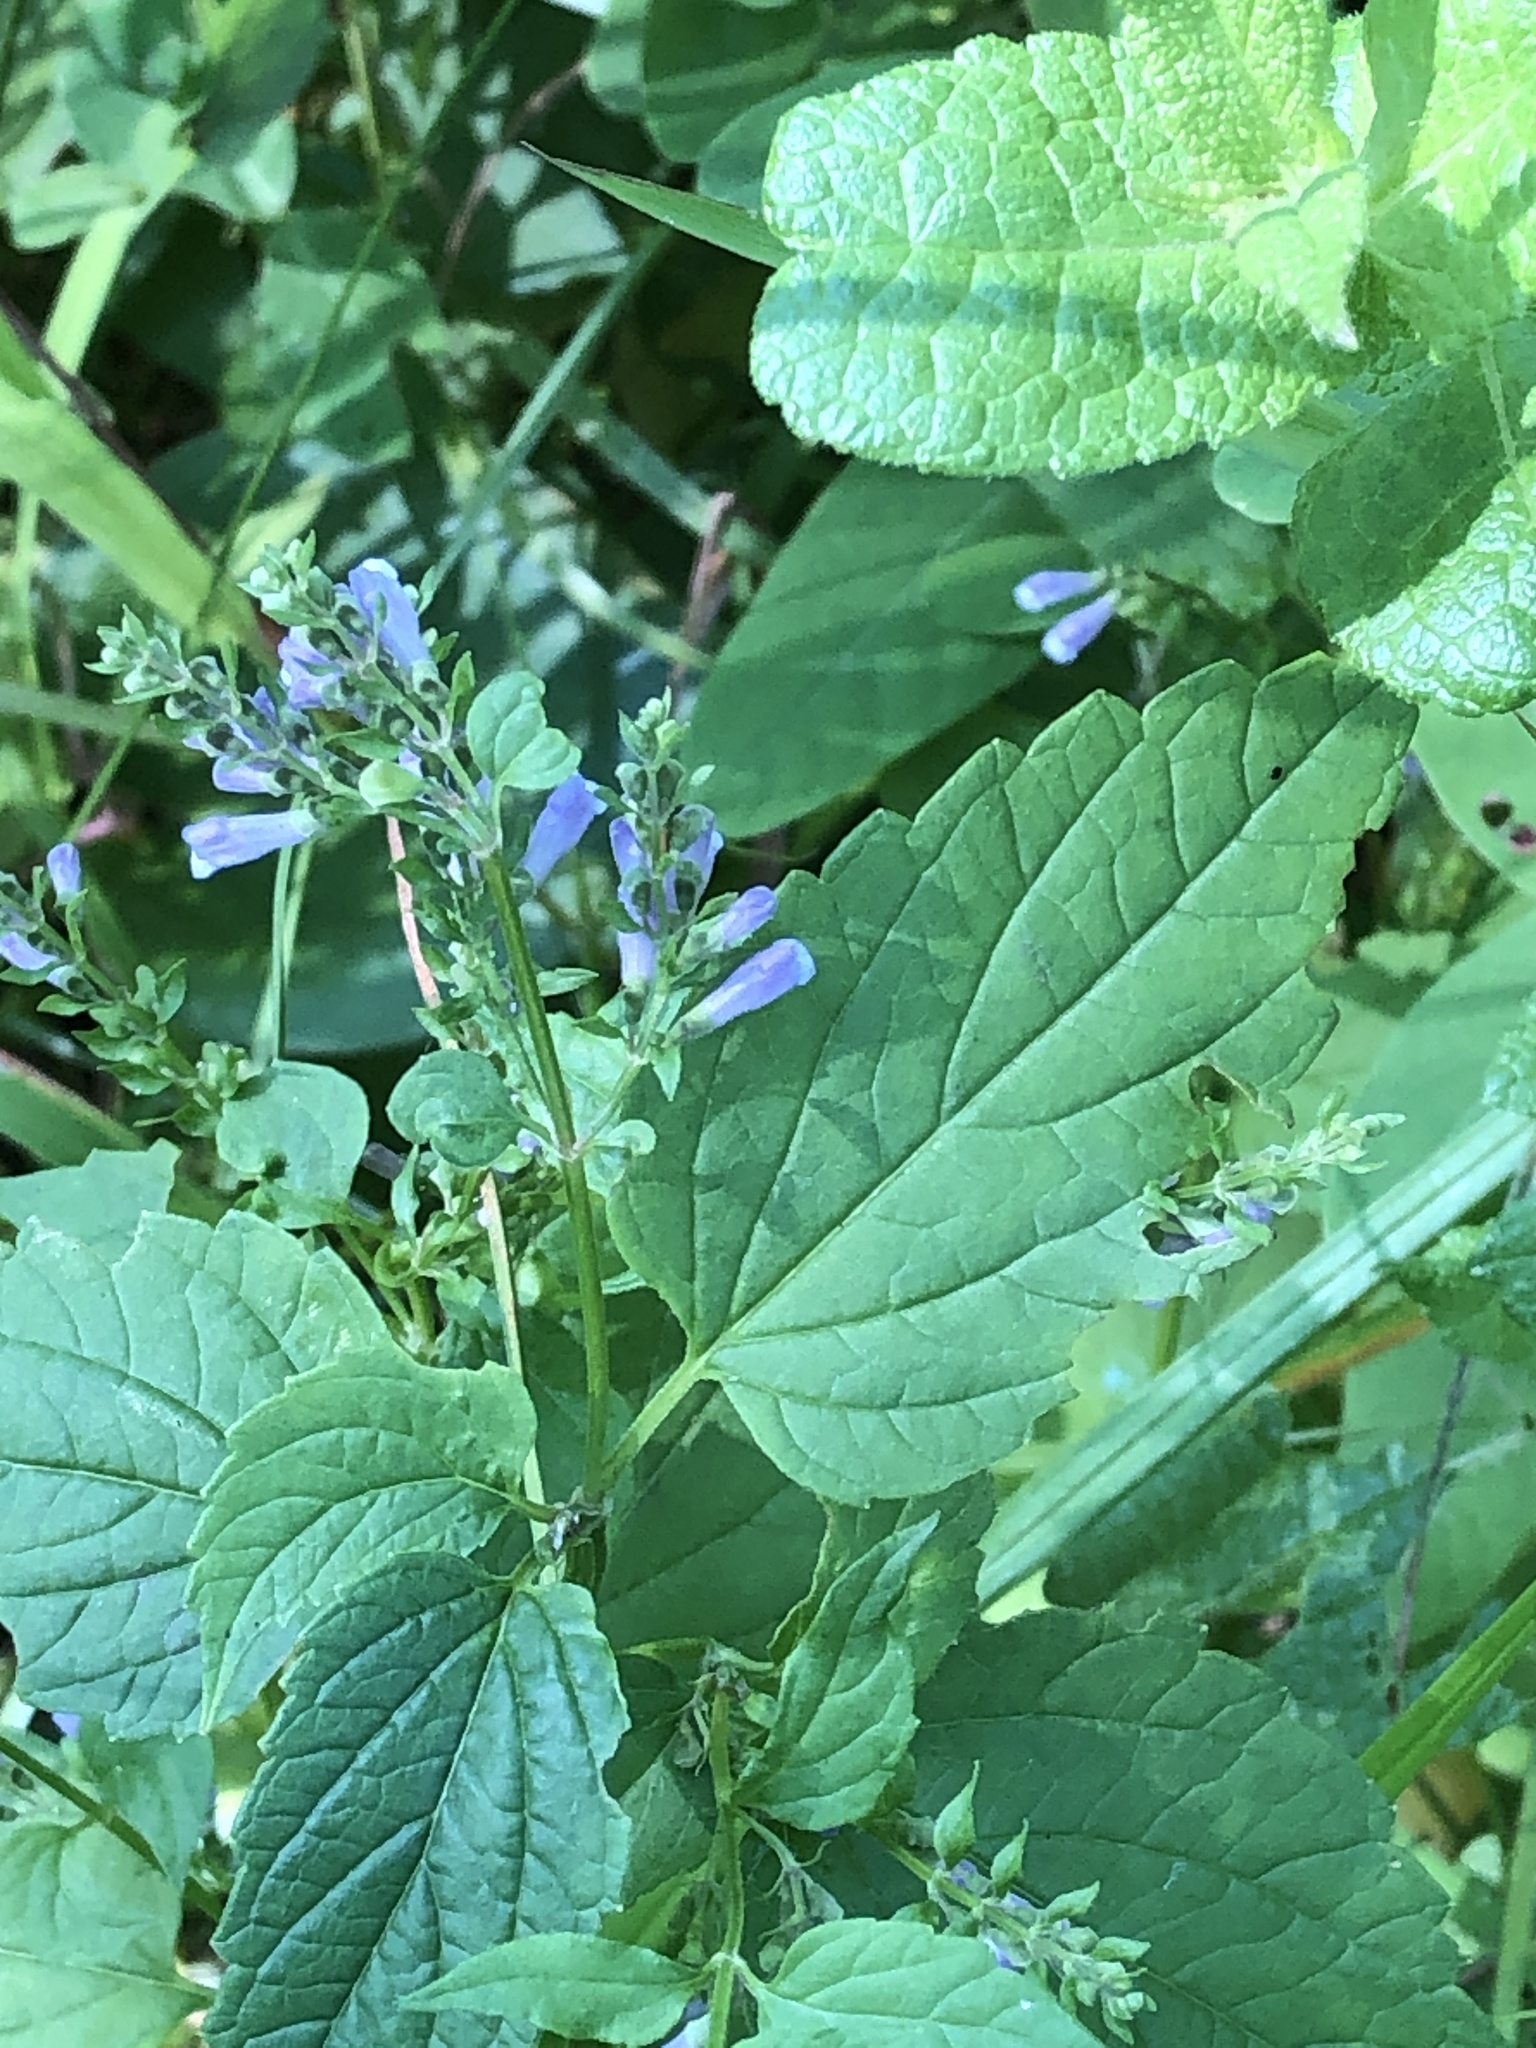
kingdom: Plantae
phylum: Tracheophyta
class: Magnoliopsida
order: Lamiales
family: Lamiaceae
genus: Scutellaria
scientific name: Scutellaria lateriflora
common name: Blue skullcap
